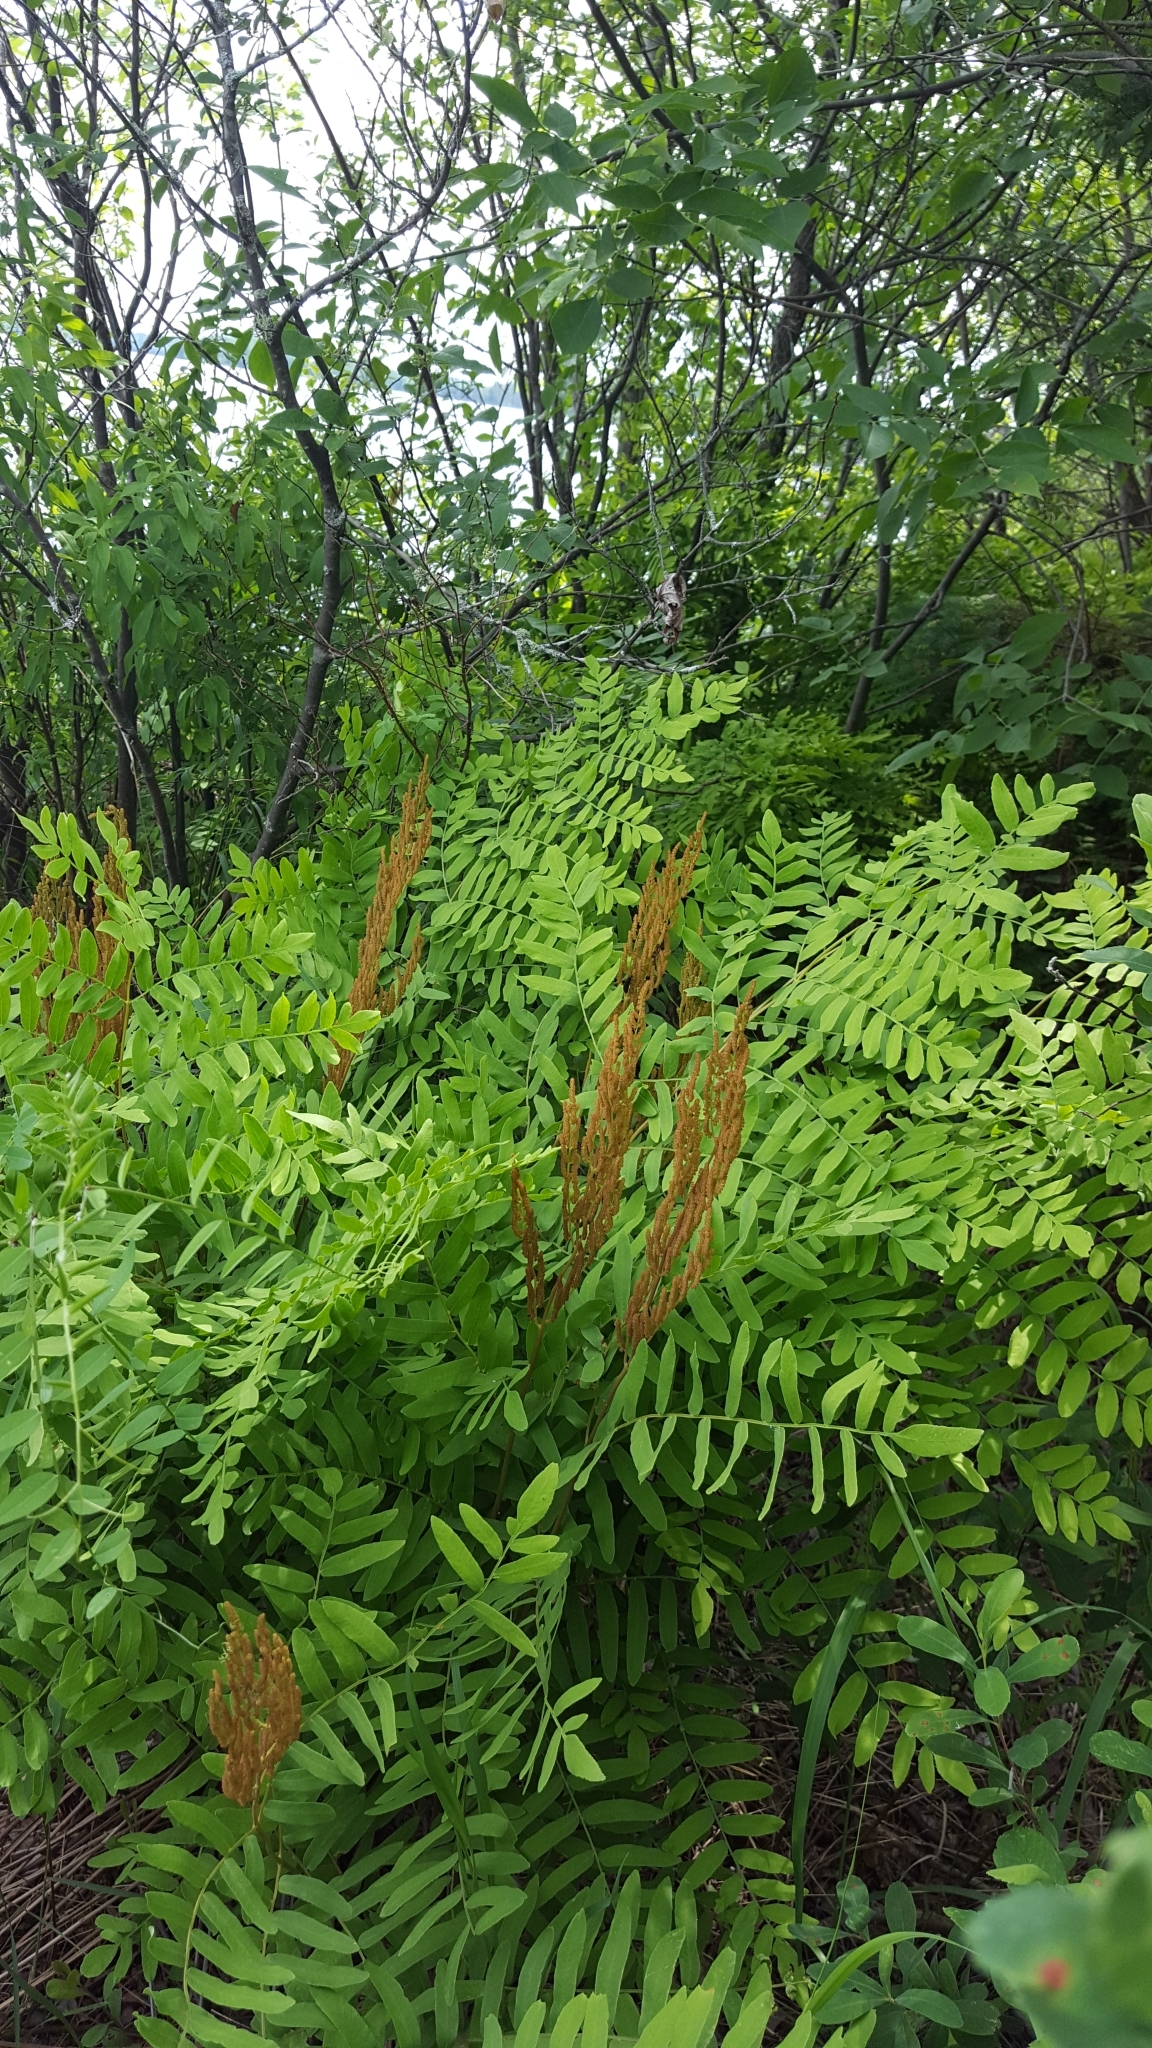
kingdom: Plantae
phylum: Tracheophyta
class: Polypodiopsida
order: Osmundales
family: Osmundaceae
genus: Osmunda
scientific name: Osmunda spectabilis
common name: American royal fern
